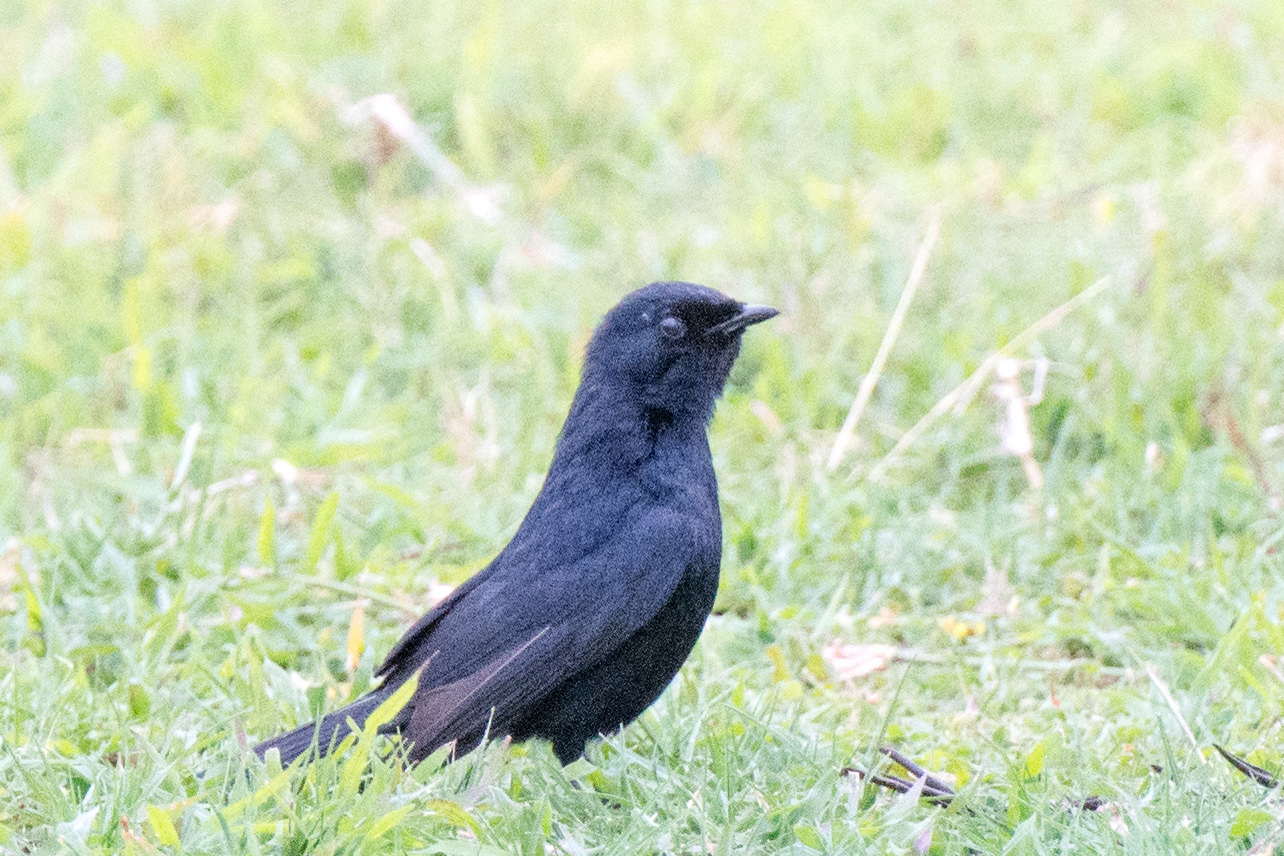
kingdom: Animalia
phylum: Chordata
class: Aves
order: Passeriformes
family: Muscicapidae
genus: Melaenornis
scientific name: Melaenornis pammelaina
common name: Southern black flycatcher
